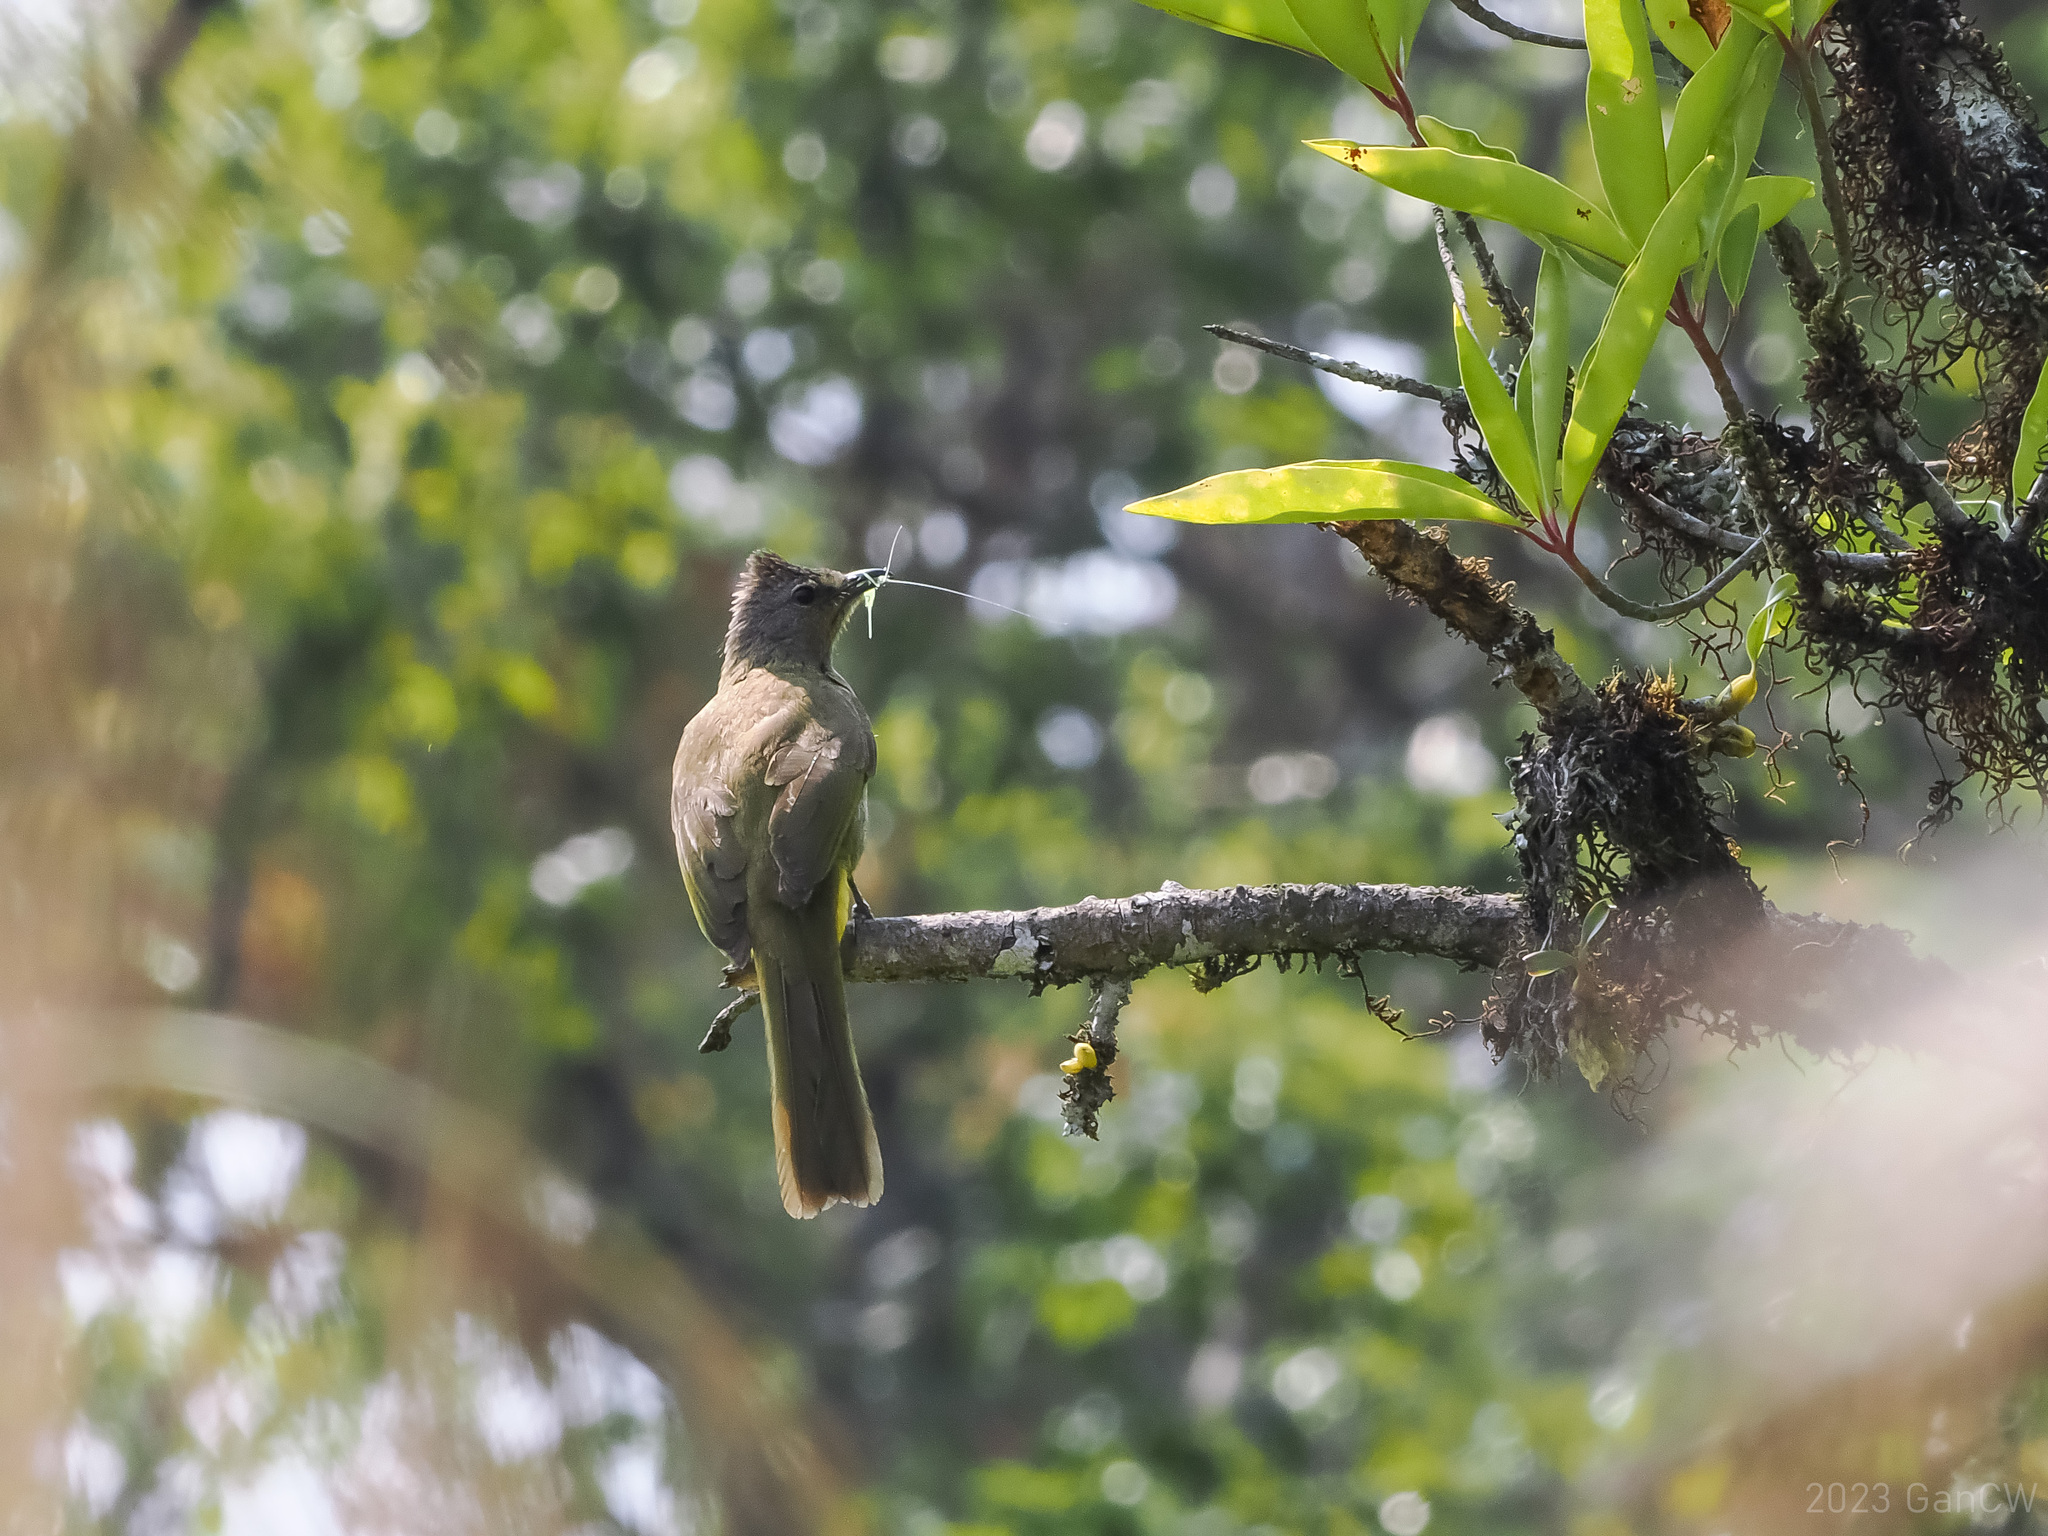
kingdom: Animalia
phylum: Chordata
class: Aves
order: Passeriformes
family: Pycnonotidae
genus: Pycnonotus
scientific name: Pycnonotus flavescens
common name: Flavescent bulbul
